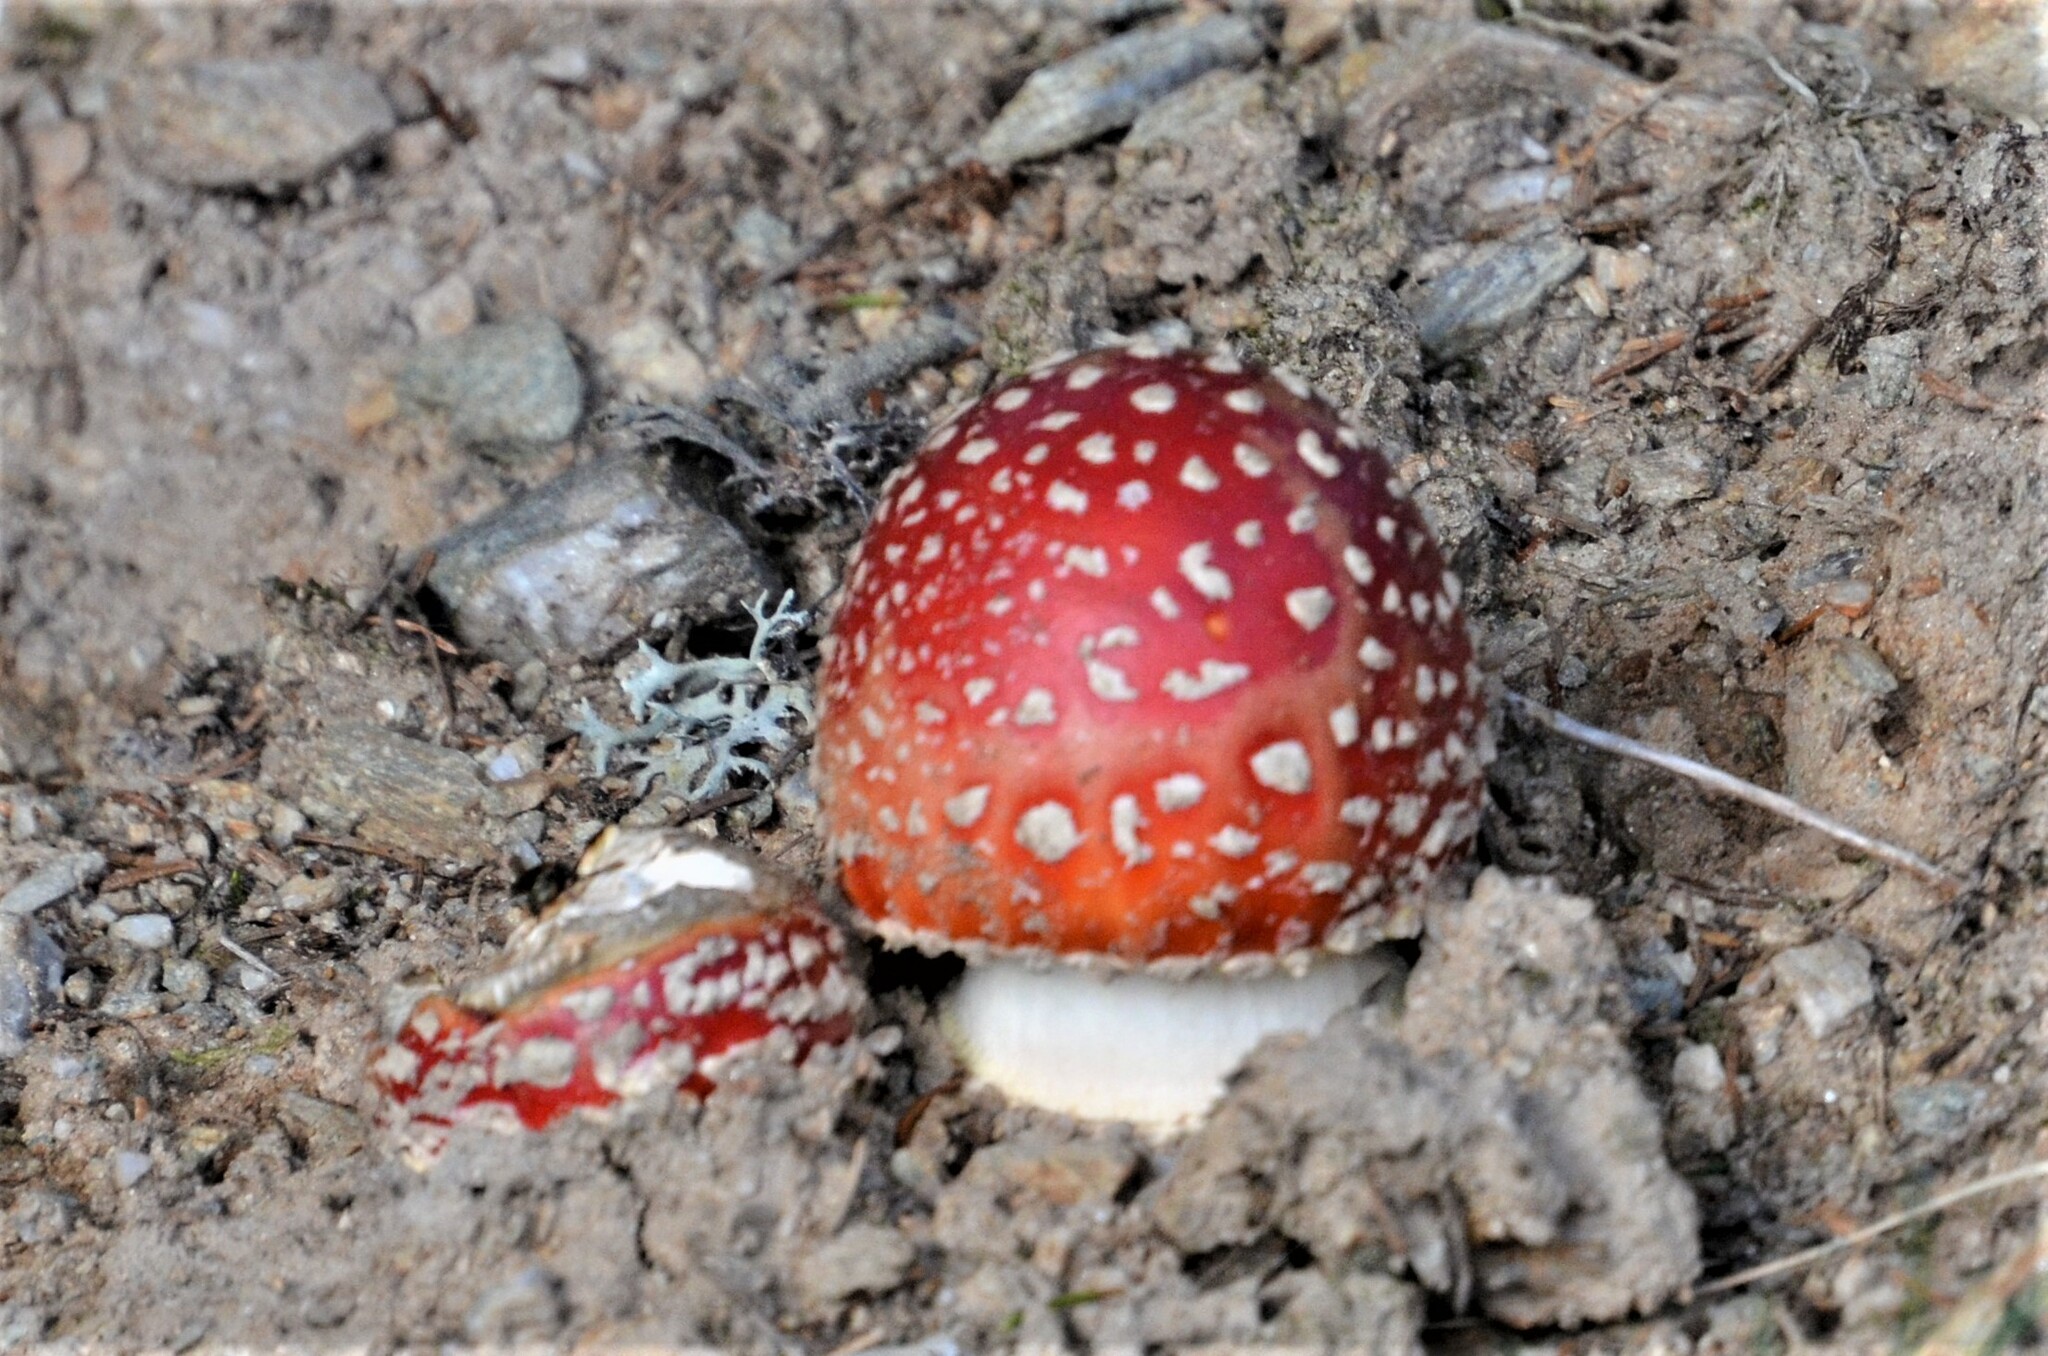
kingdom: Fungi
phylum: Basidiomycota
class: Agaricomycetes
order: Agaricales
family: Amanitaceae
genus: Amanita
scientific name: Amanita muscaria
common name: Fly agaric
